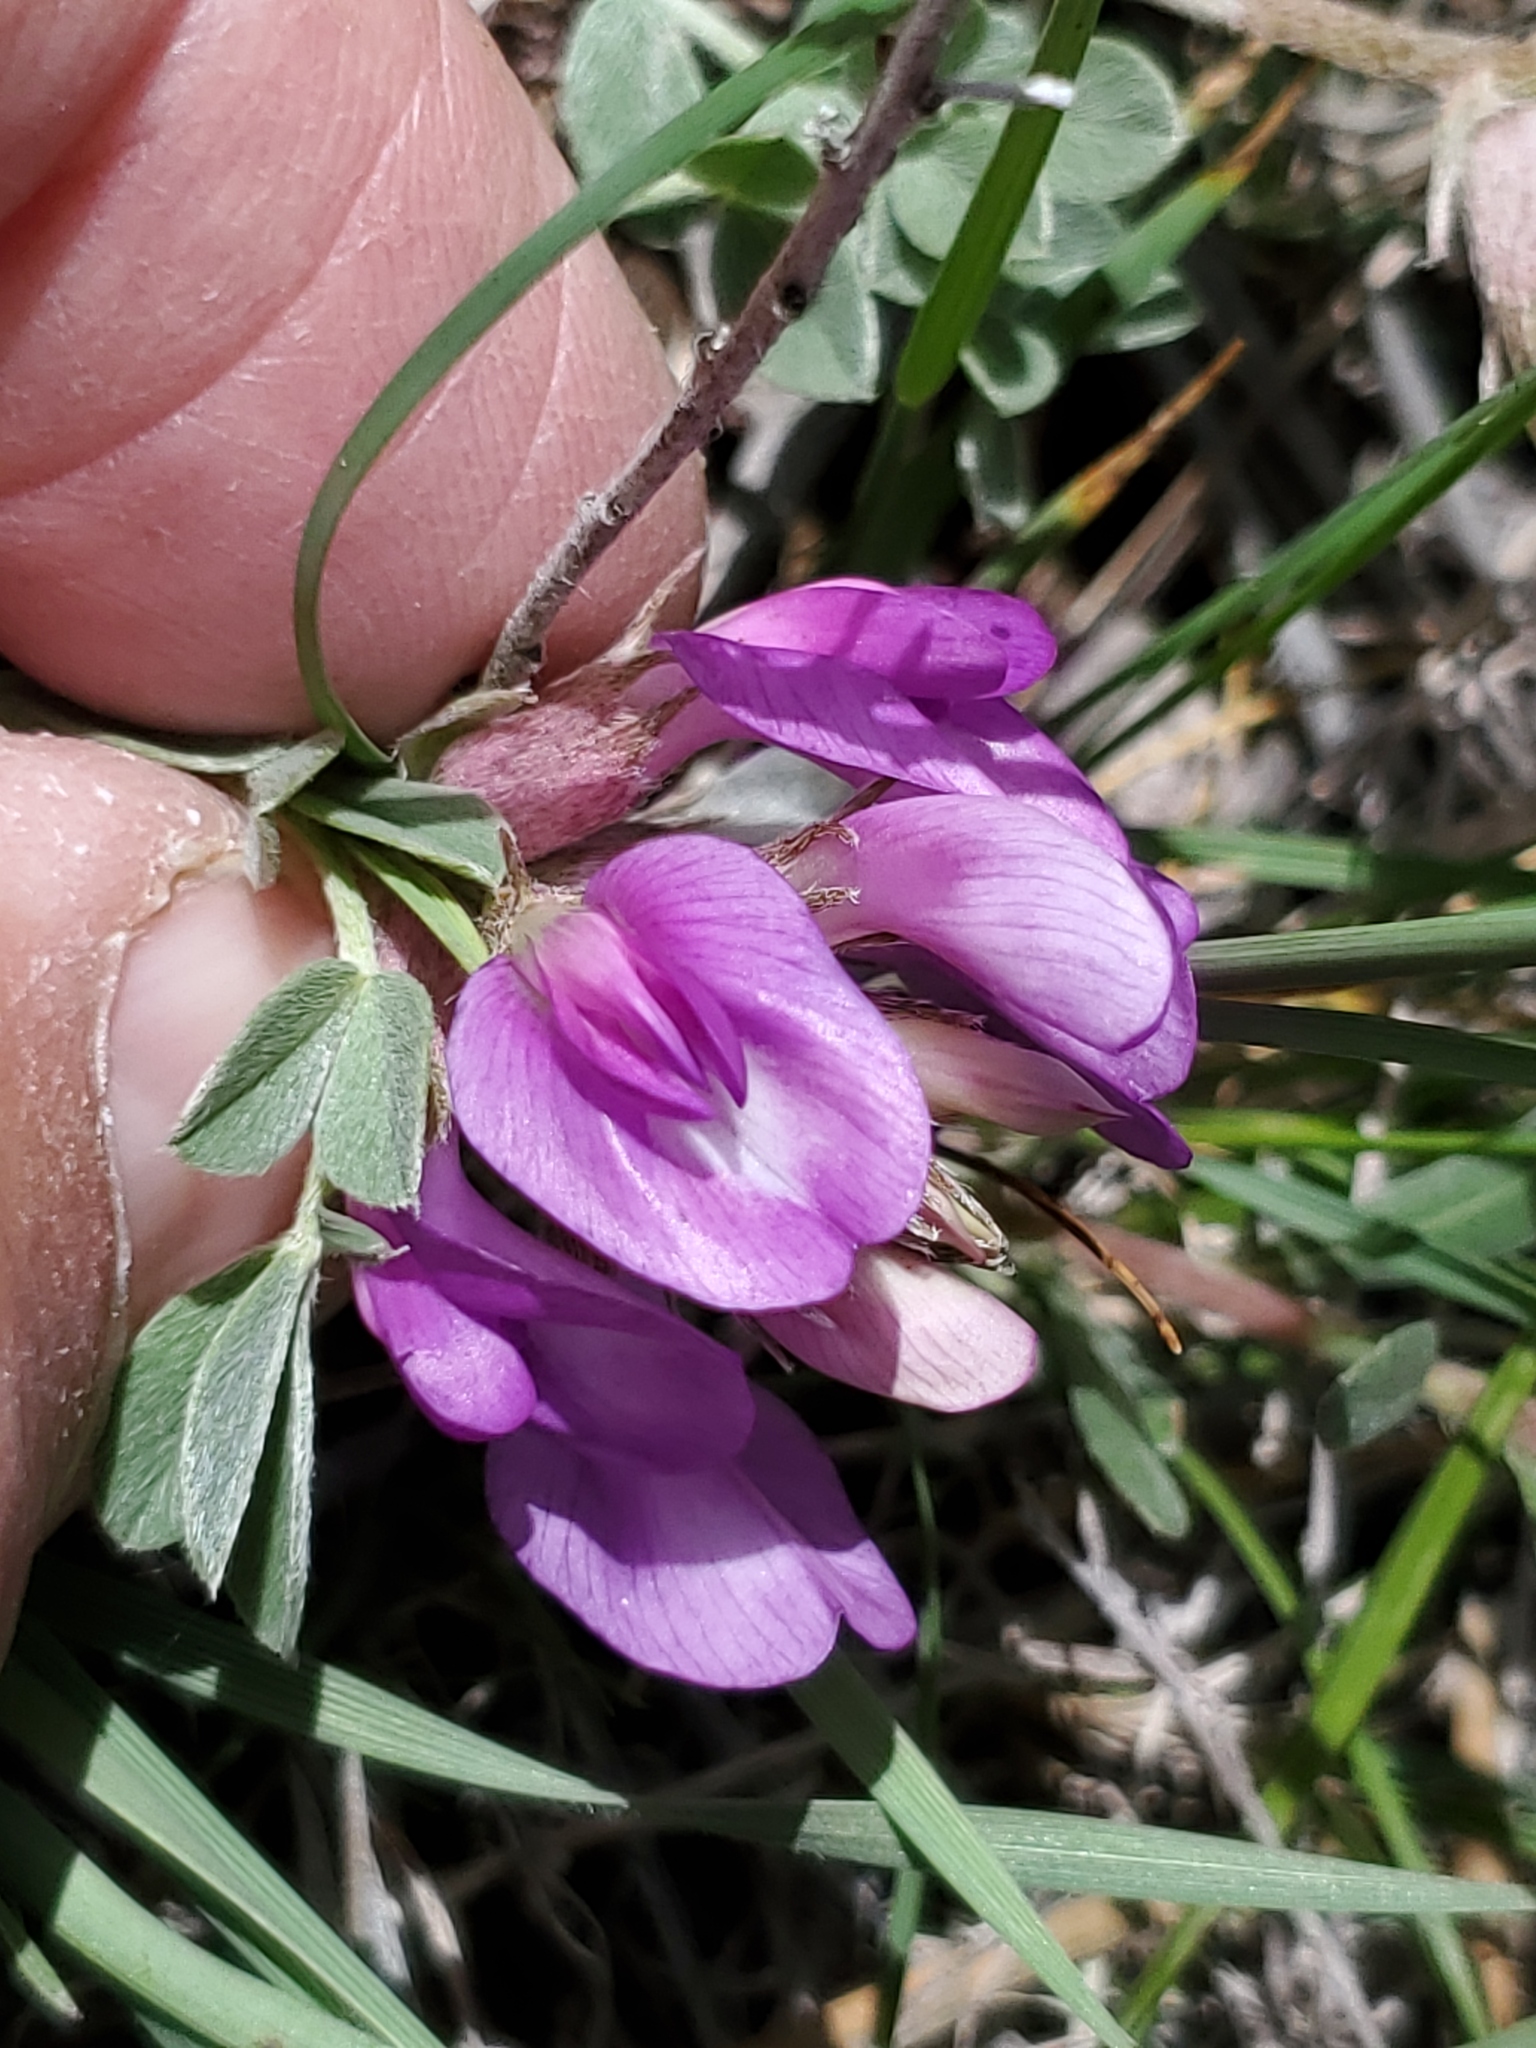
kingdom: Plantae
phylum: Tracheophyta
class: Magnoliopsida
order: Fabales
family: Fabaceae
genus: Astragalus
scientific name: Astragalus missouriensis
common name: Missouri milk-vetch
